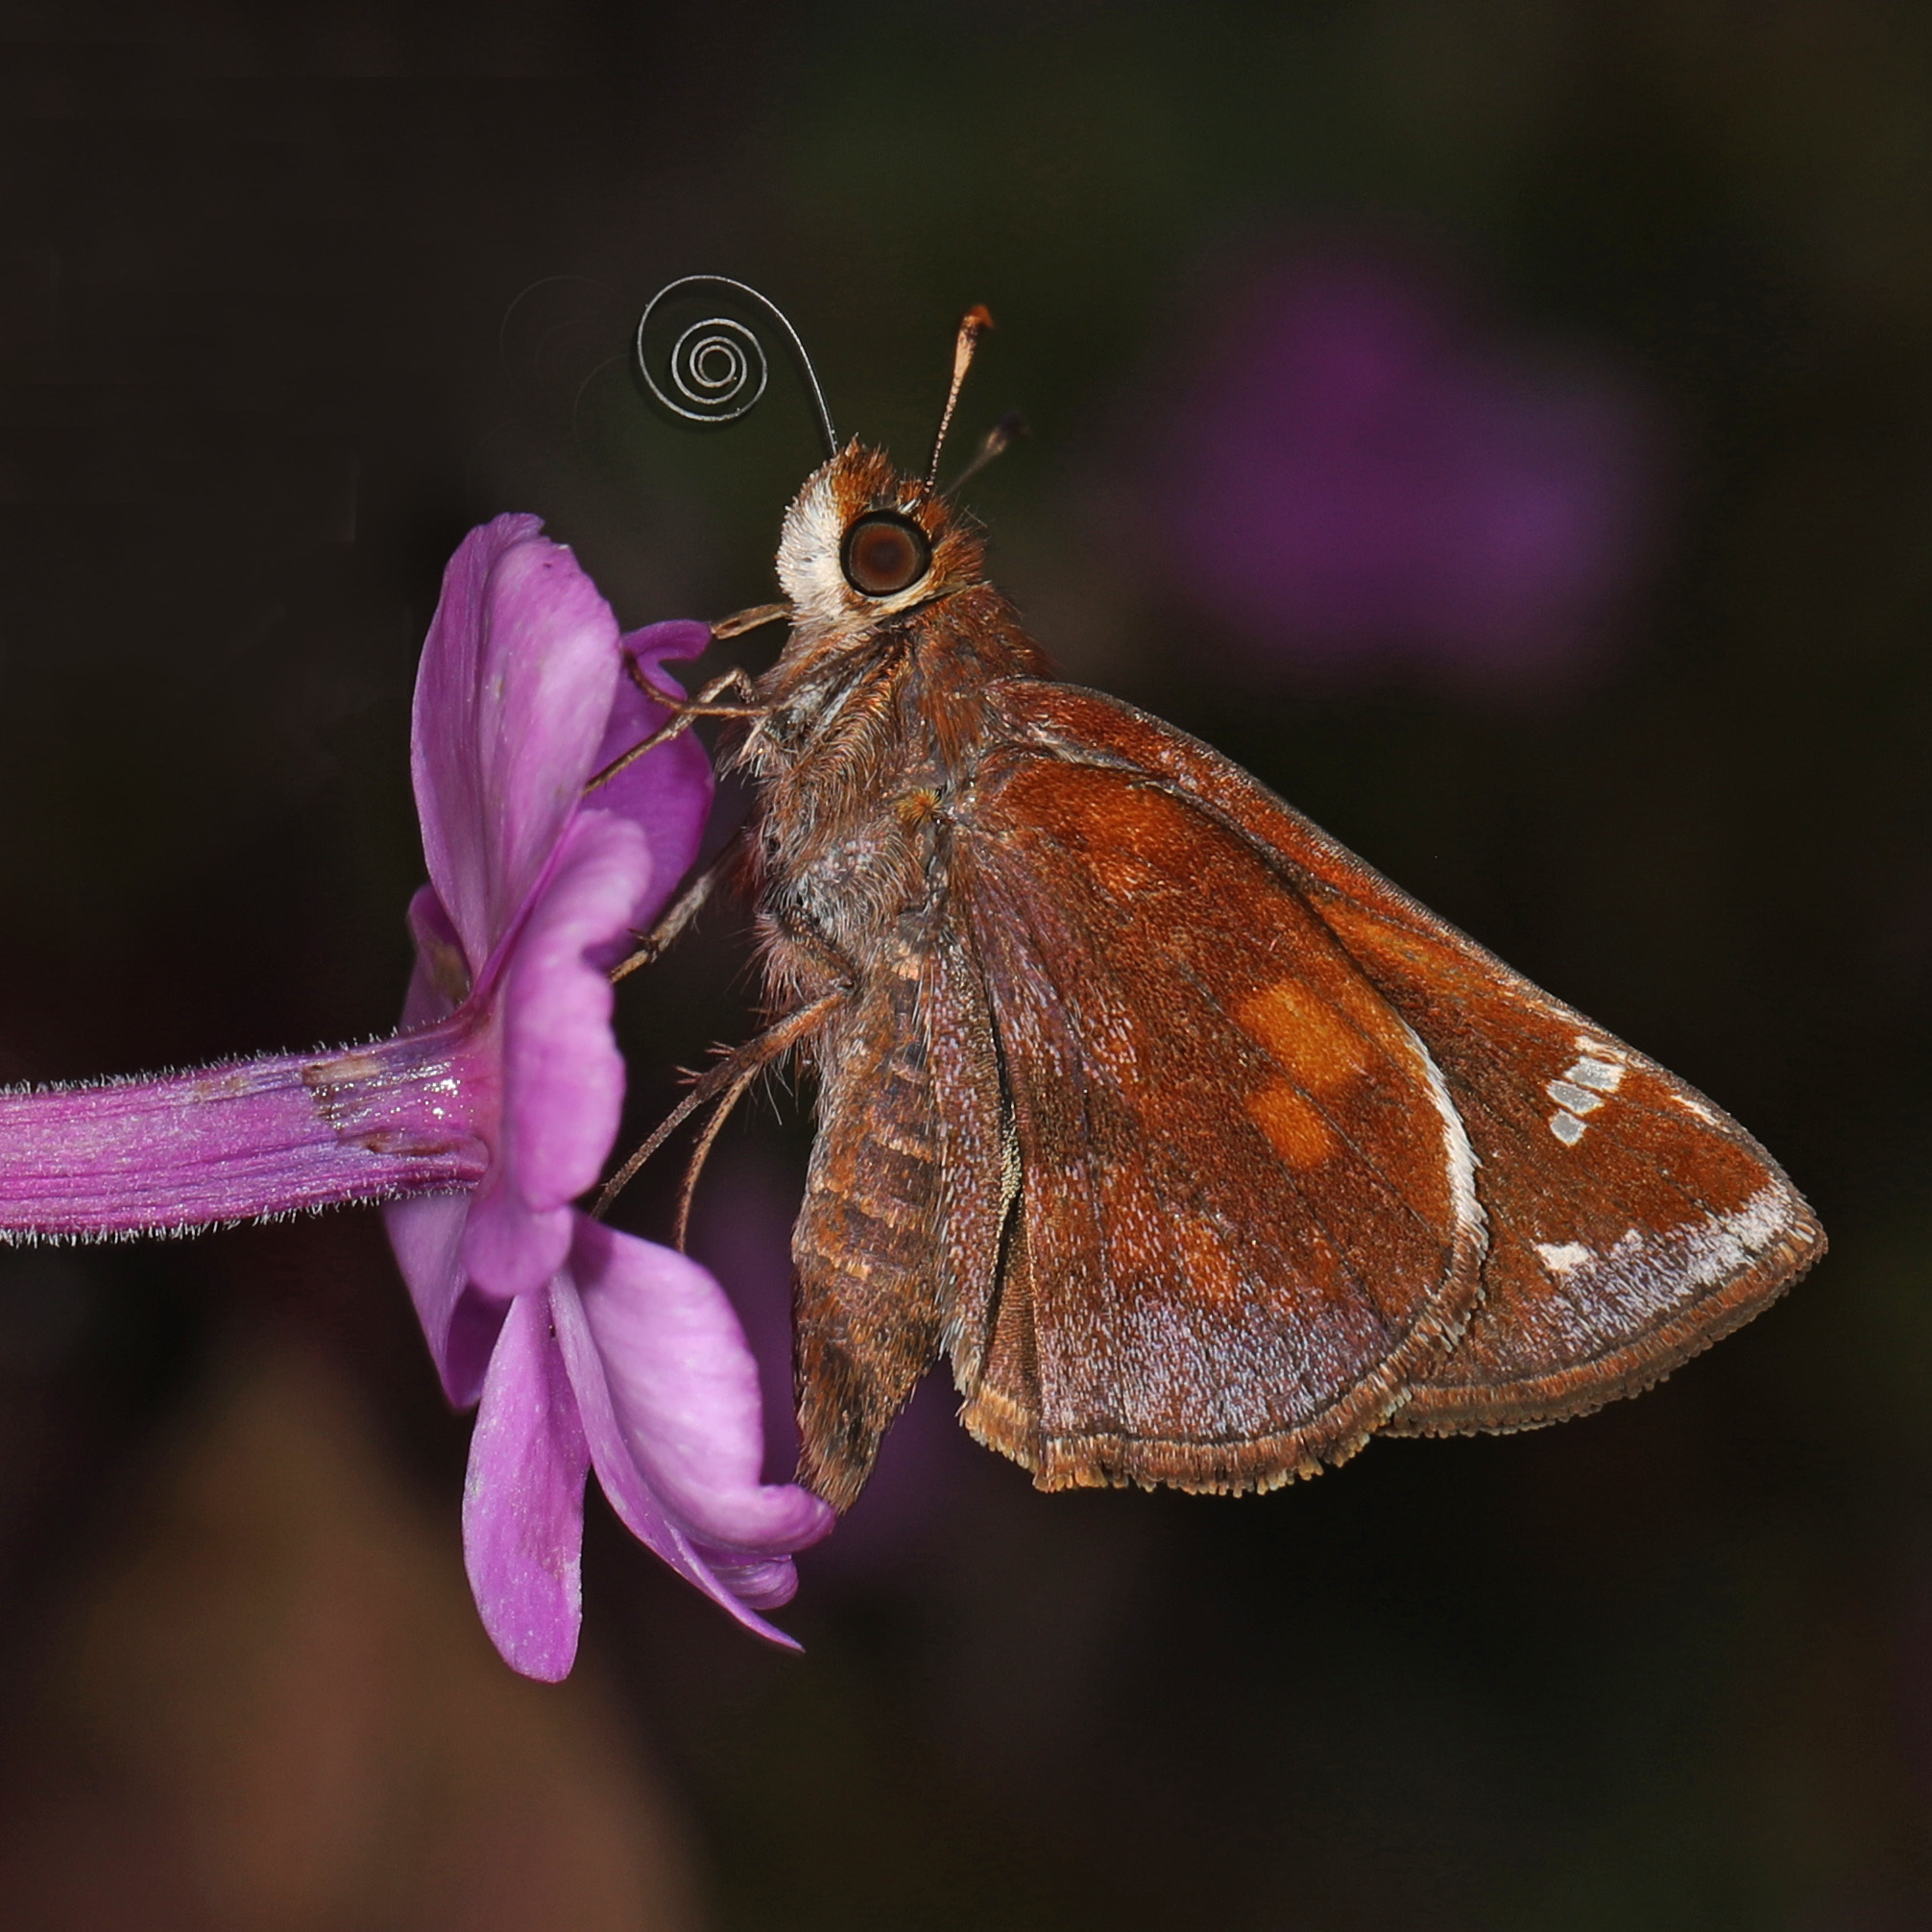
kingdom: Animalia
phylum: Arthropoda
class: Insecta
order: Lepidoptera
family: Hesperiidae
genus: Lon
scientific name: Lon zabulon
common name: Zabulon skipper
